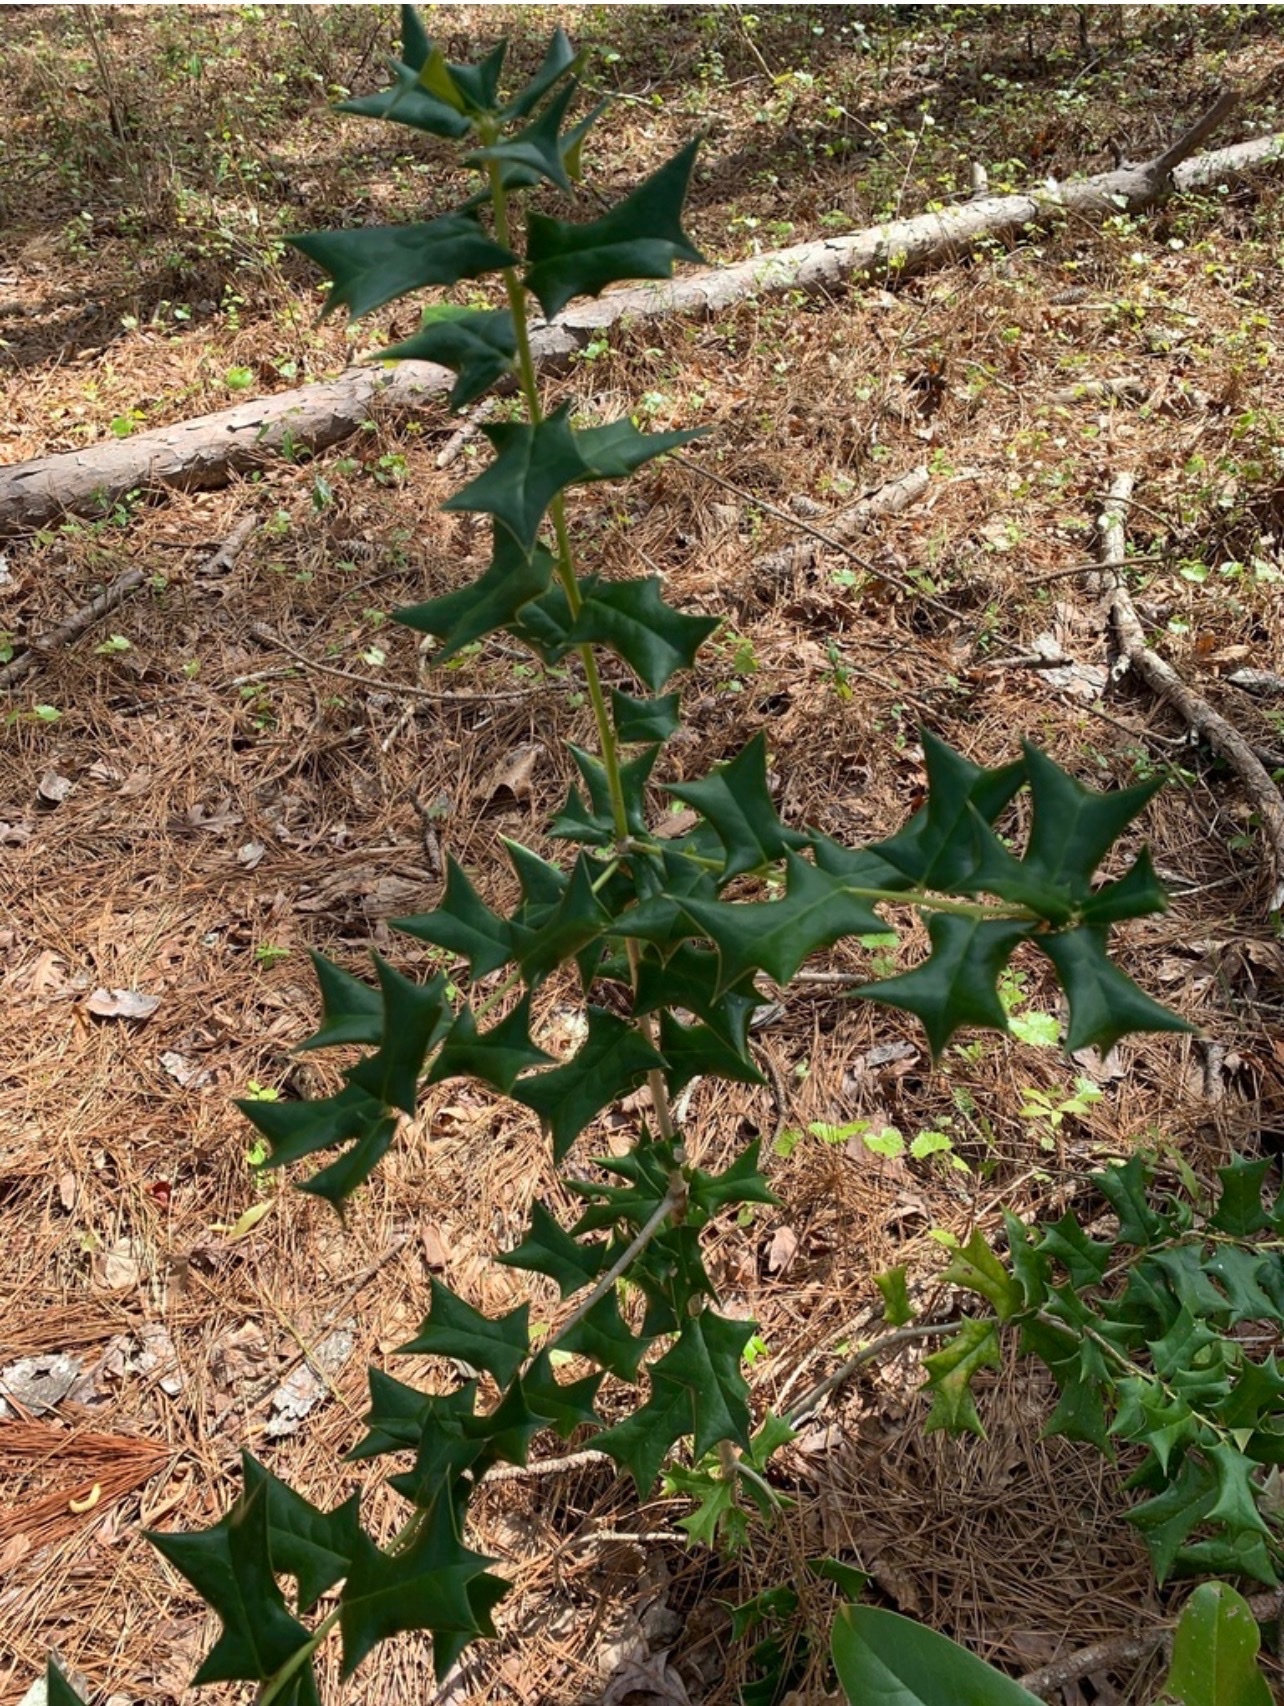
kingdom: Plantae
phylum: Tracheophyta
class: Magnoliopsida
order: Aquifoliales
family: Aquifoliaceae
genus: Ilex
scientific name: Ilex cornuta
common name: Chinese holly
